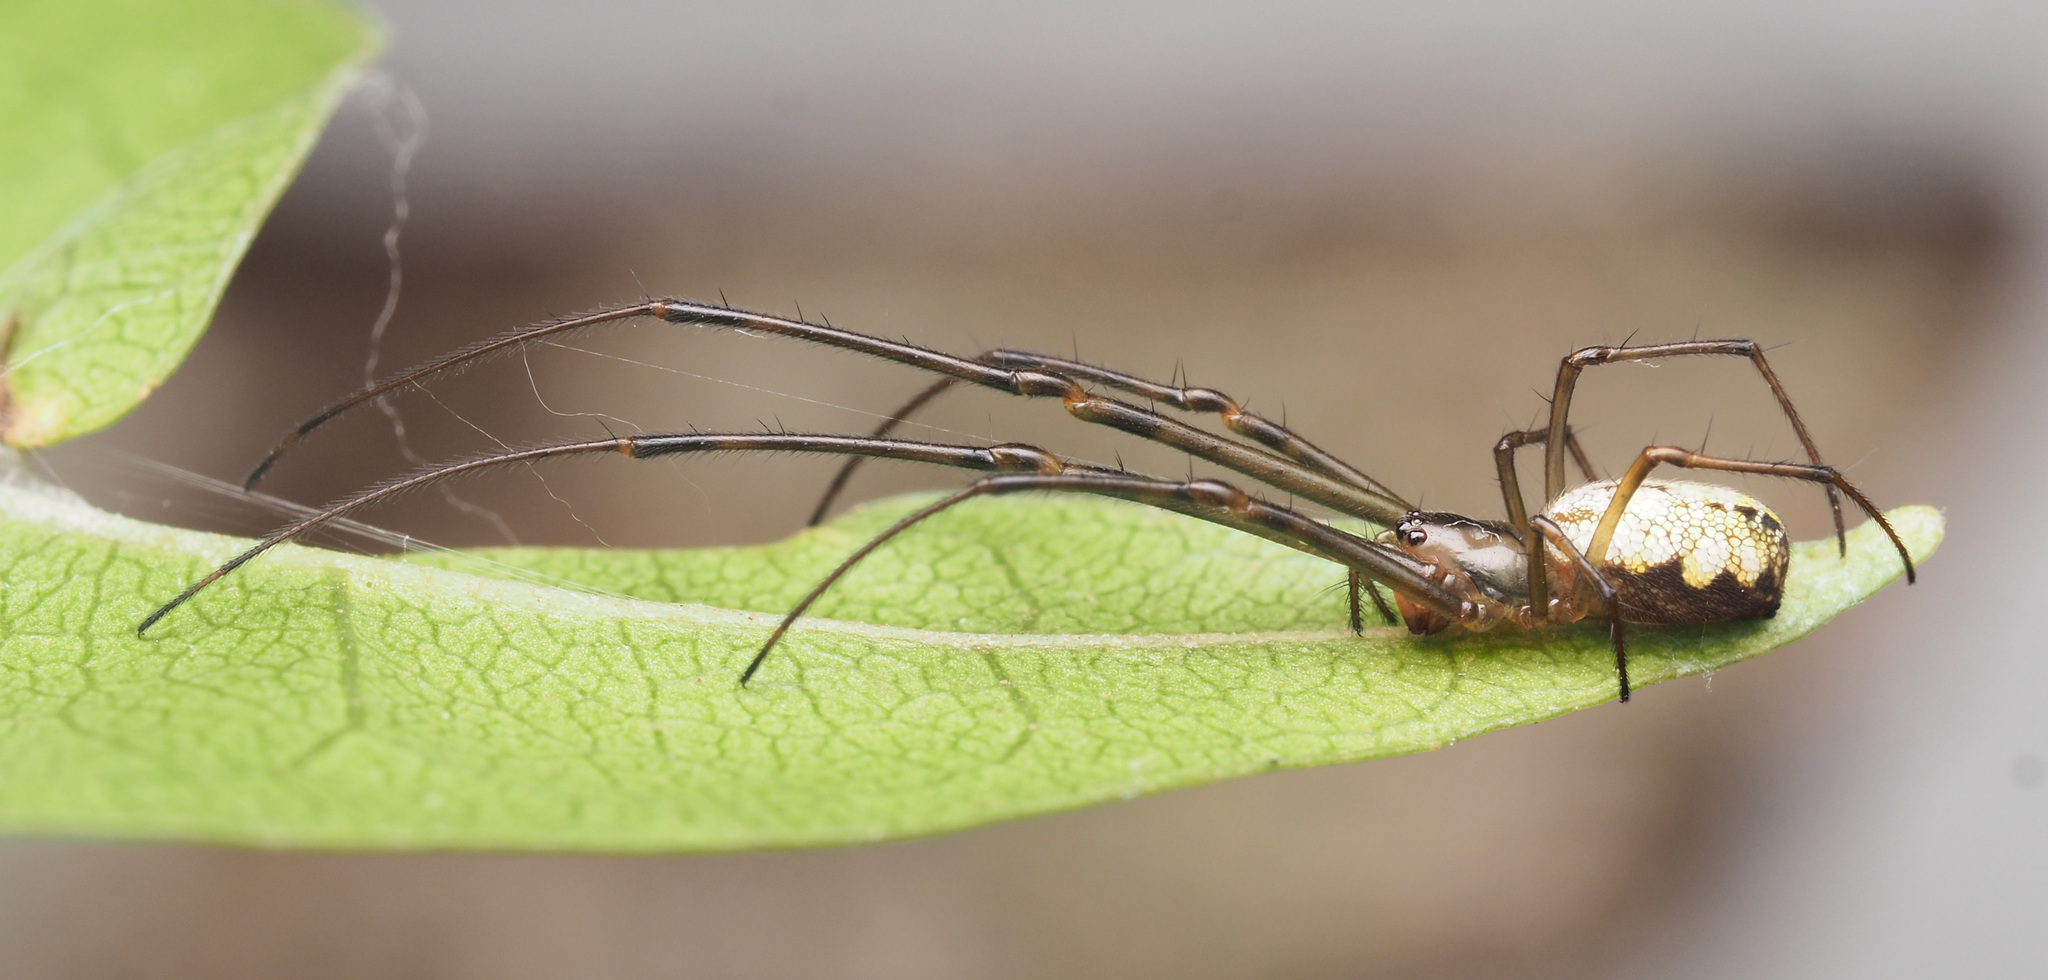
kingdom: Animalia
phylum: Arthropoda
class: Arachnida
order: Araneae
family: Tetragnathidae
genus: Tylorida
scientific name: Tylorida
